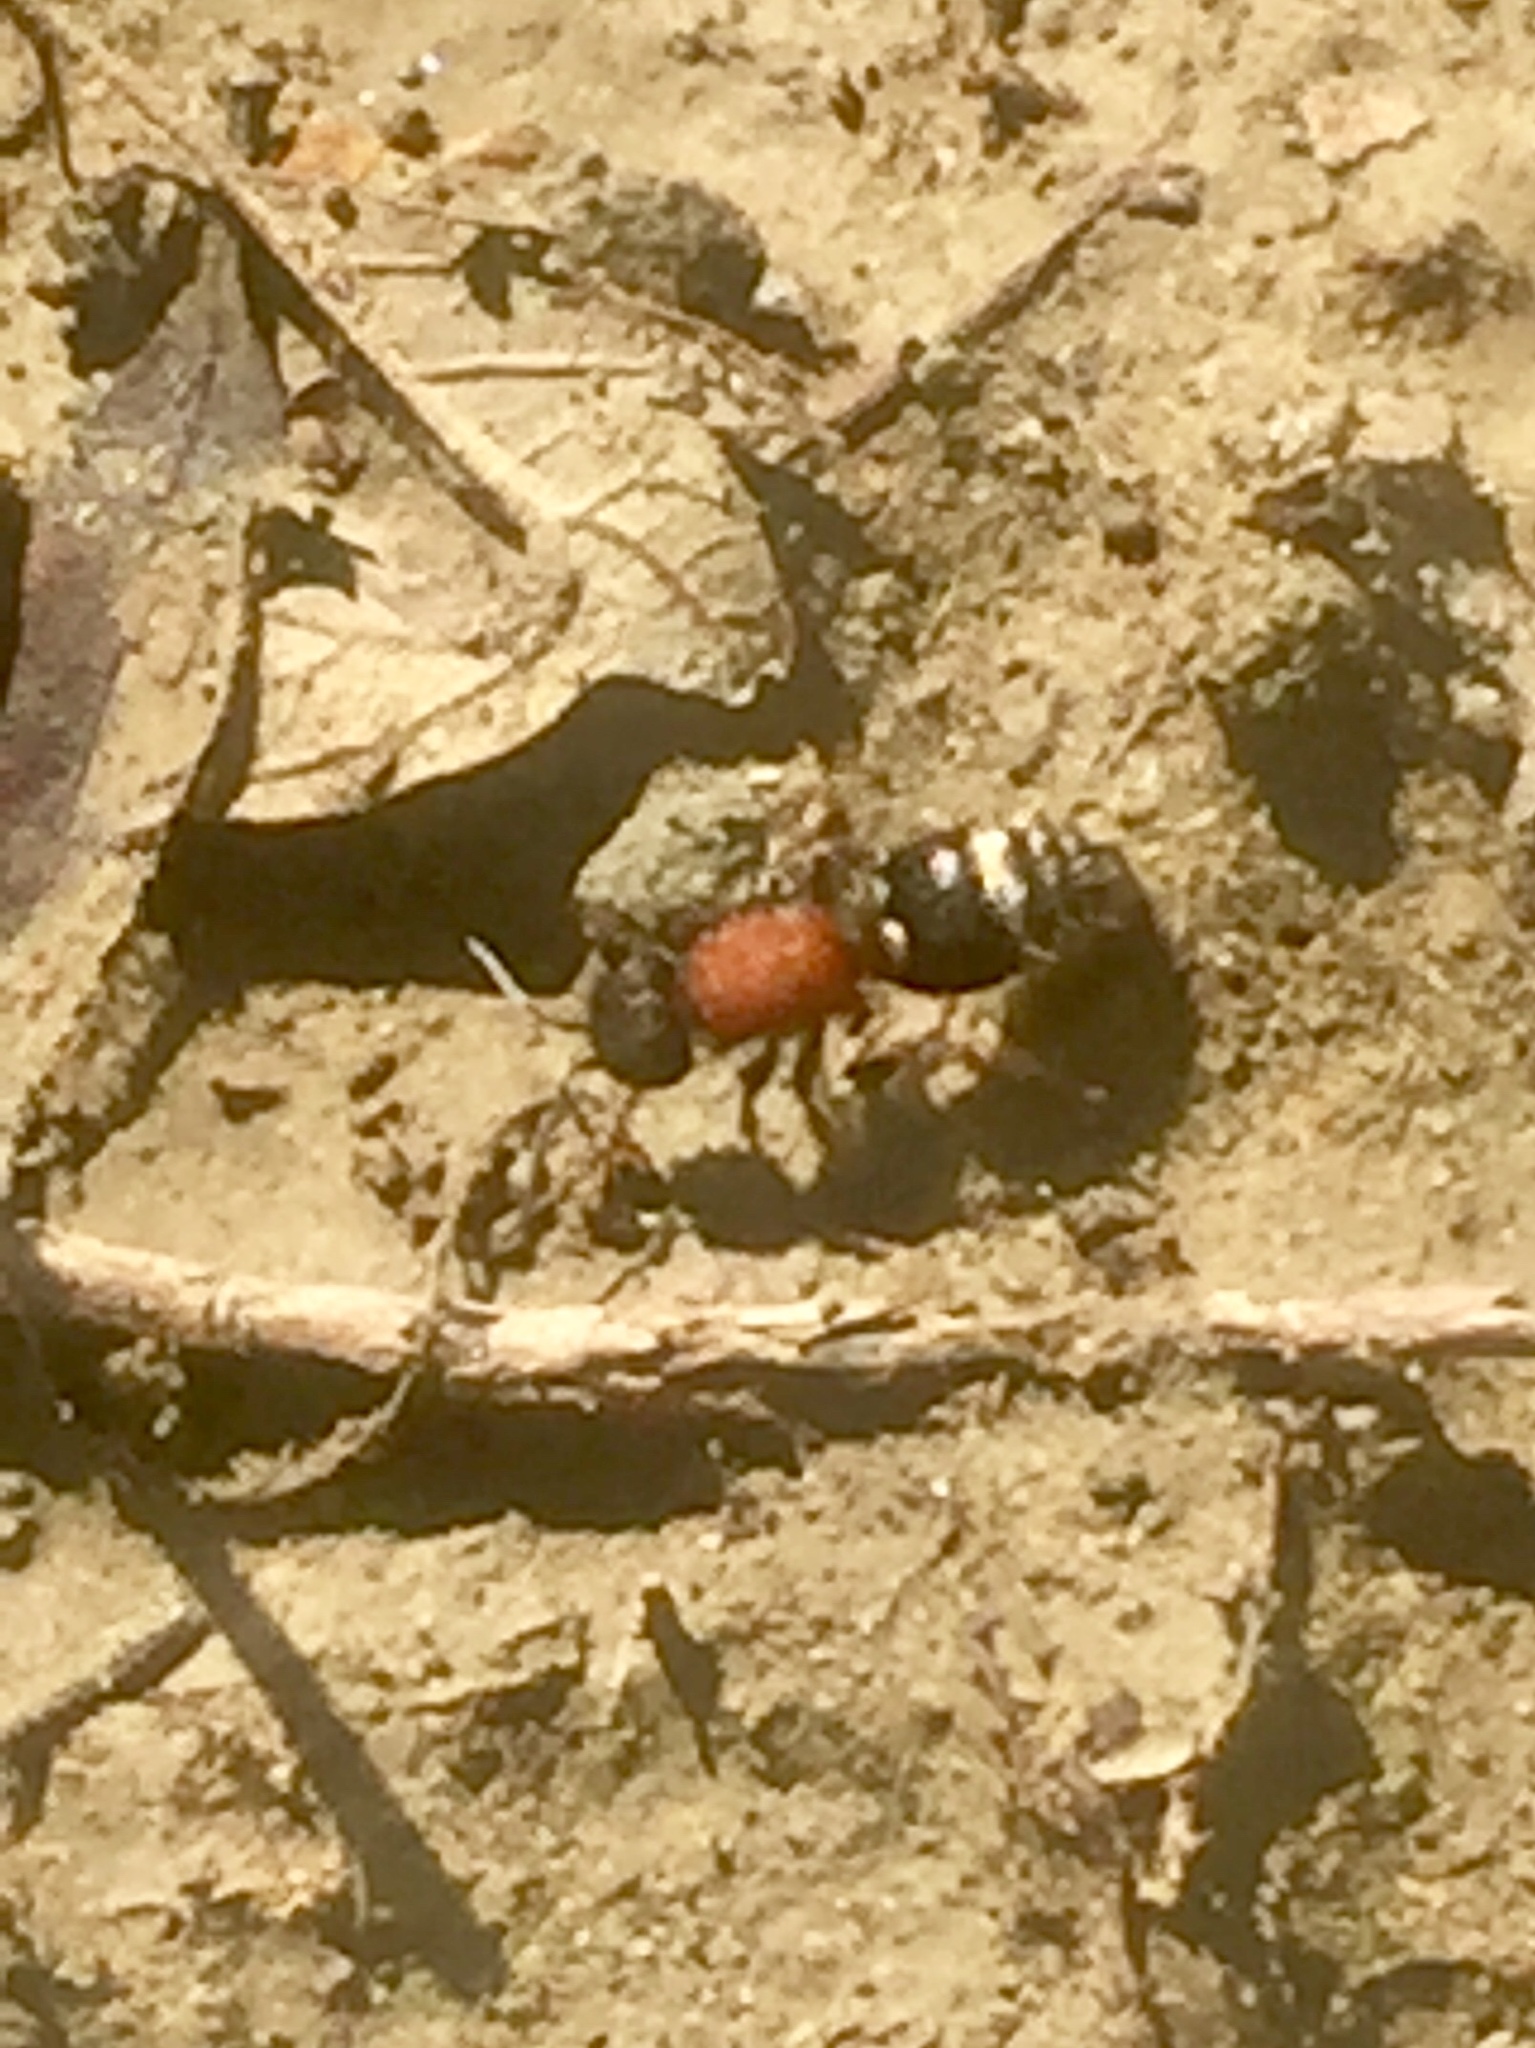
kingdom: Animalia
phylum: Arthropoda
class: Insecta
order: Hymenoptera
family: Mutillidae
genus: Tropidotilla
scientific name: Tropidotilla
